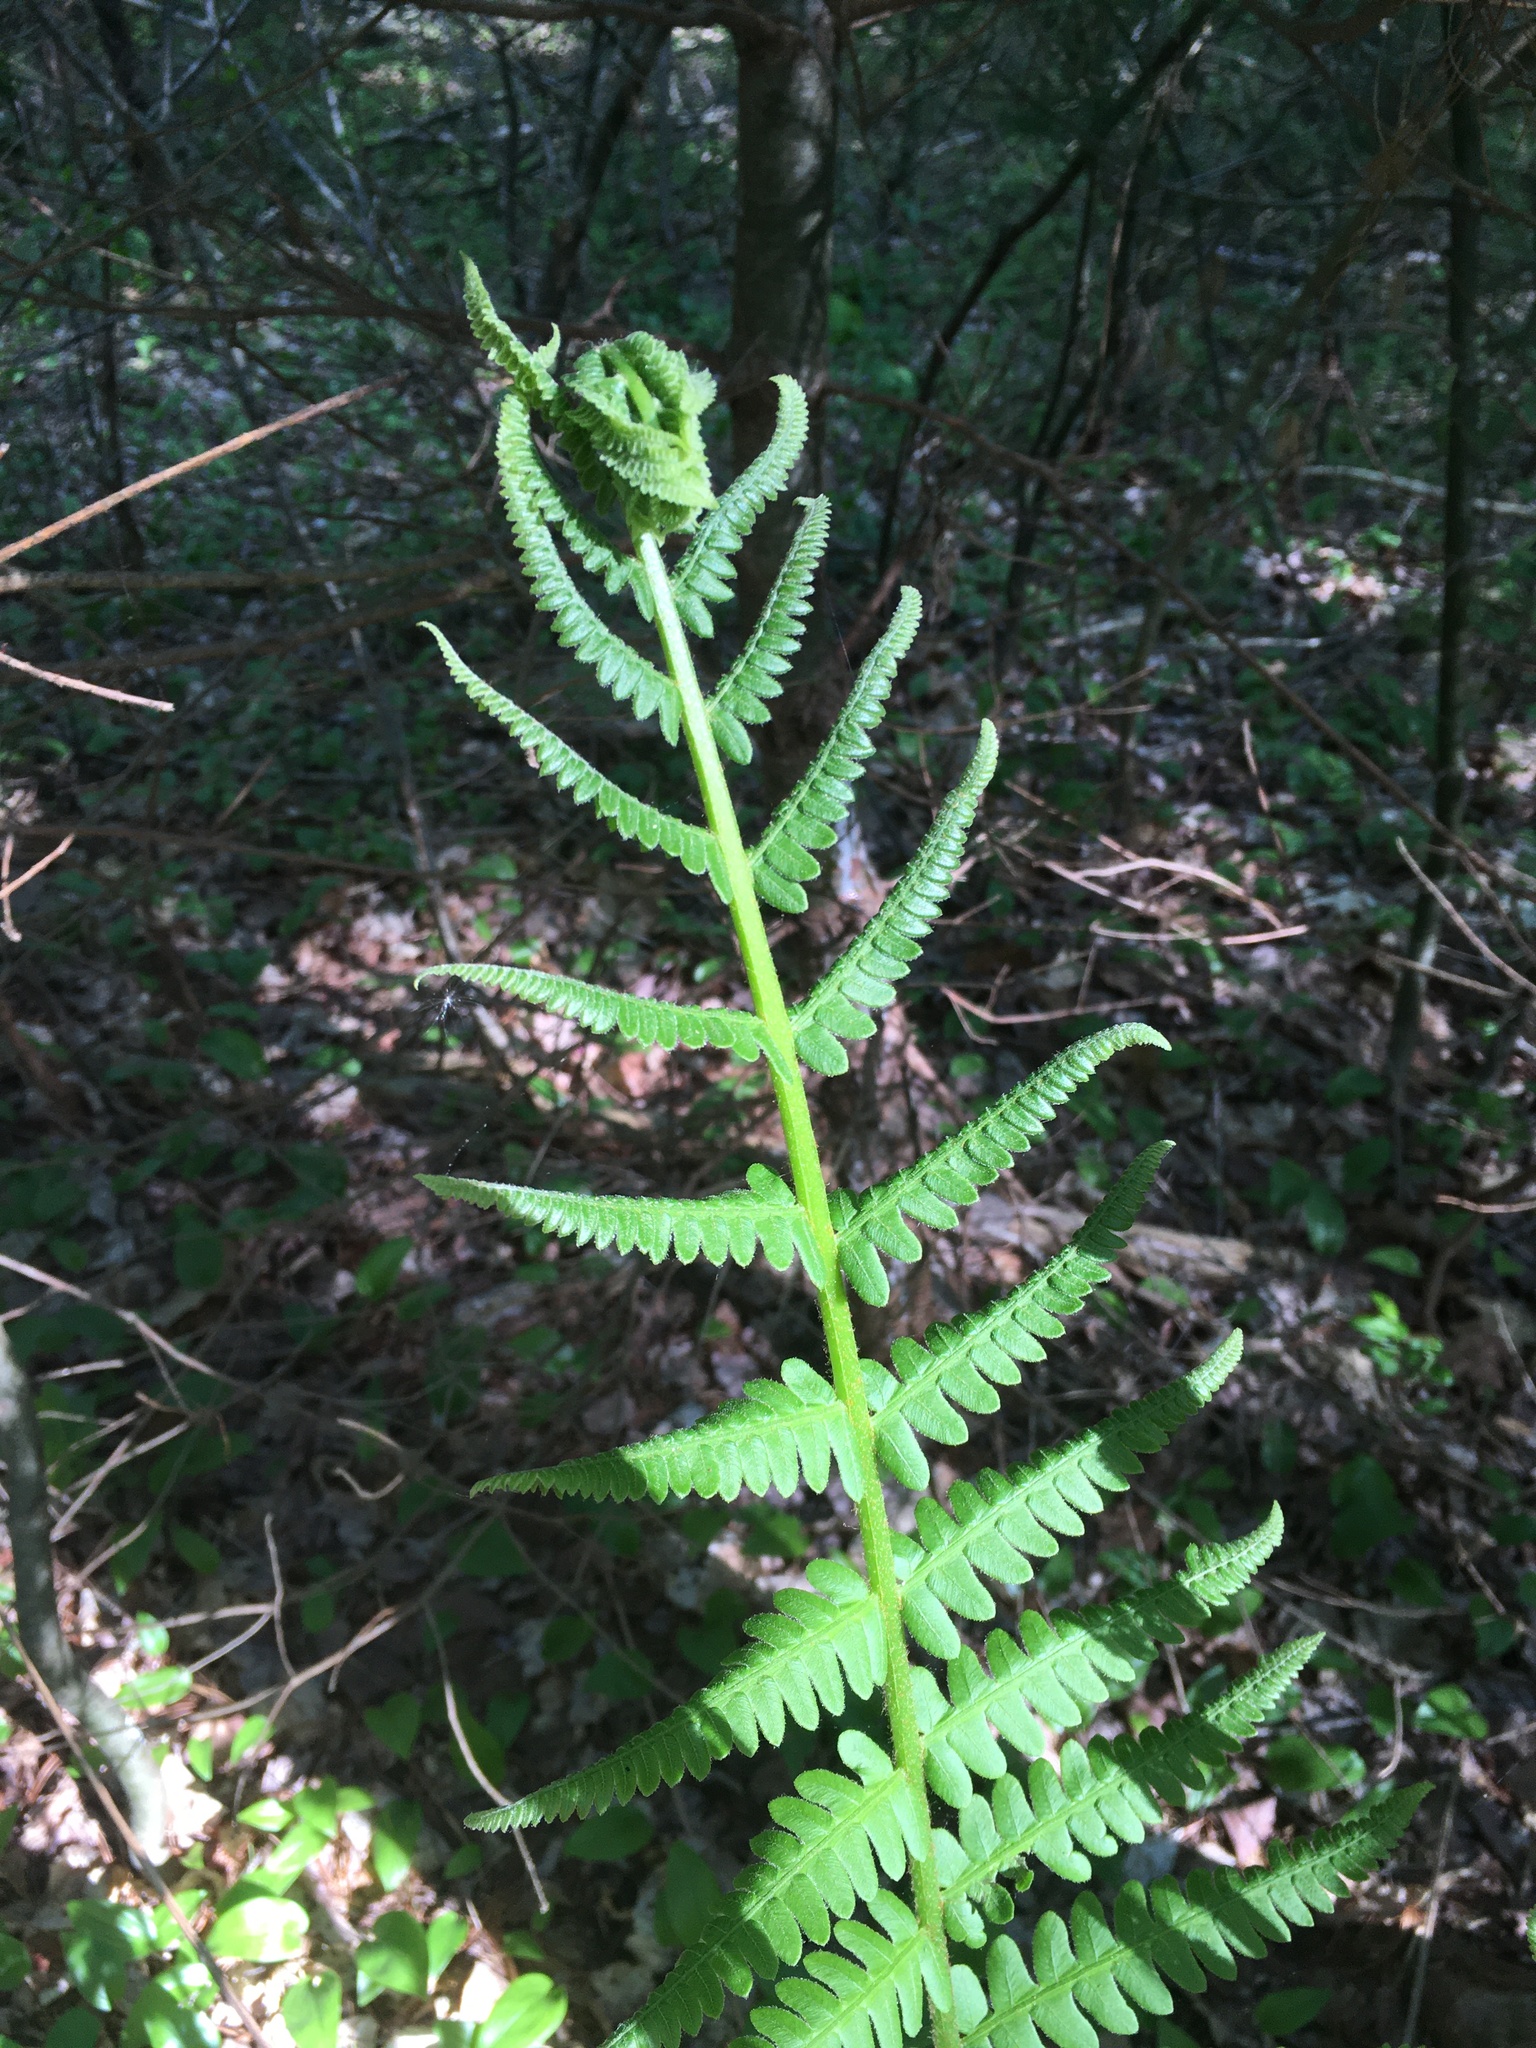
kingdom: Plantae
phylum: Tracheophyta
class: Polypodiopsida
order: Osmundales
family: Osmundaceae
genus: Osmundastrum
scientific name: Osmundastrum cinnamomeum
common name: Cinnamon fern
